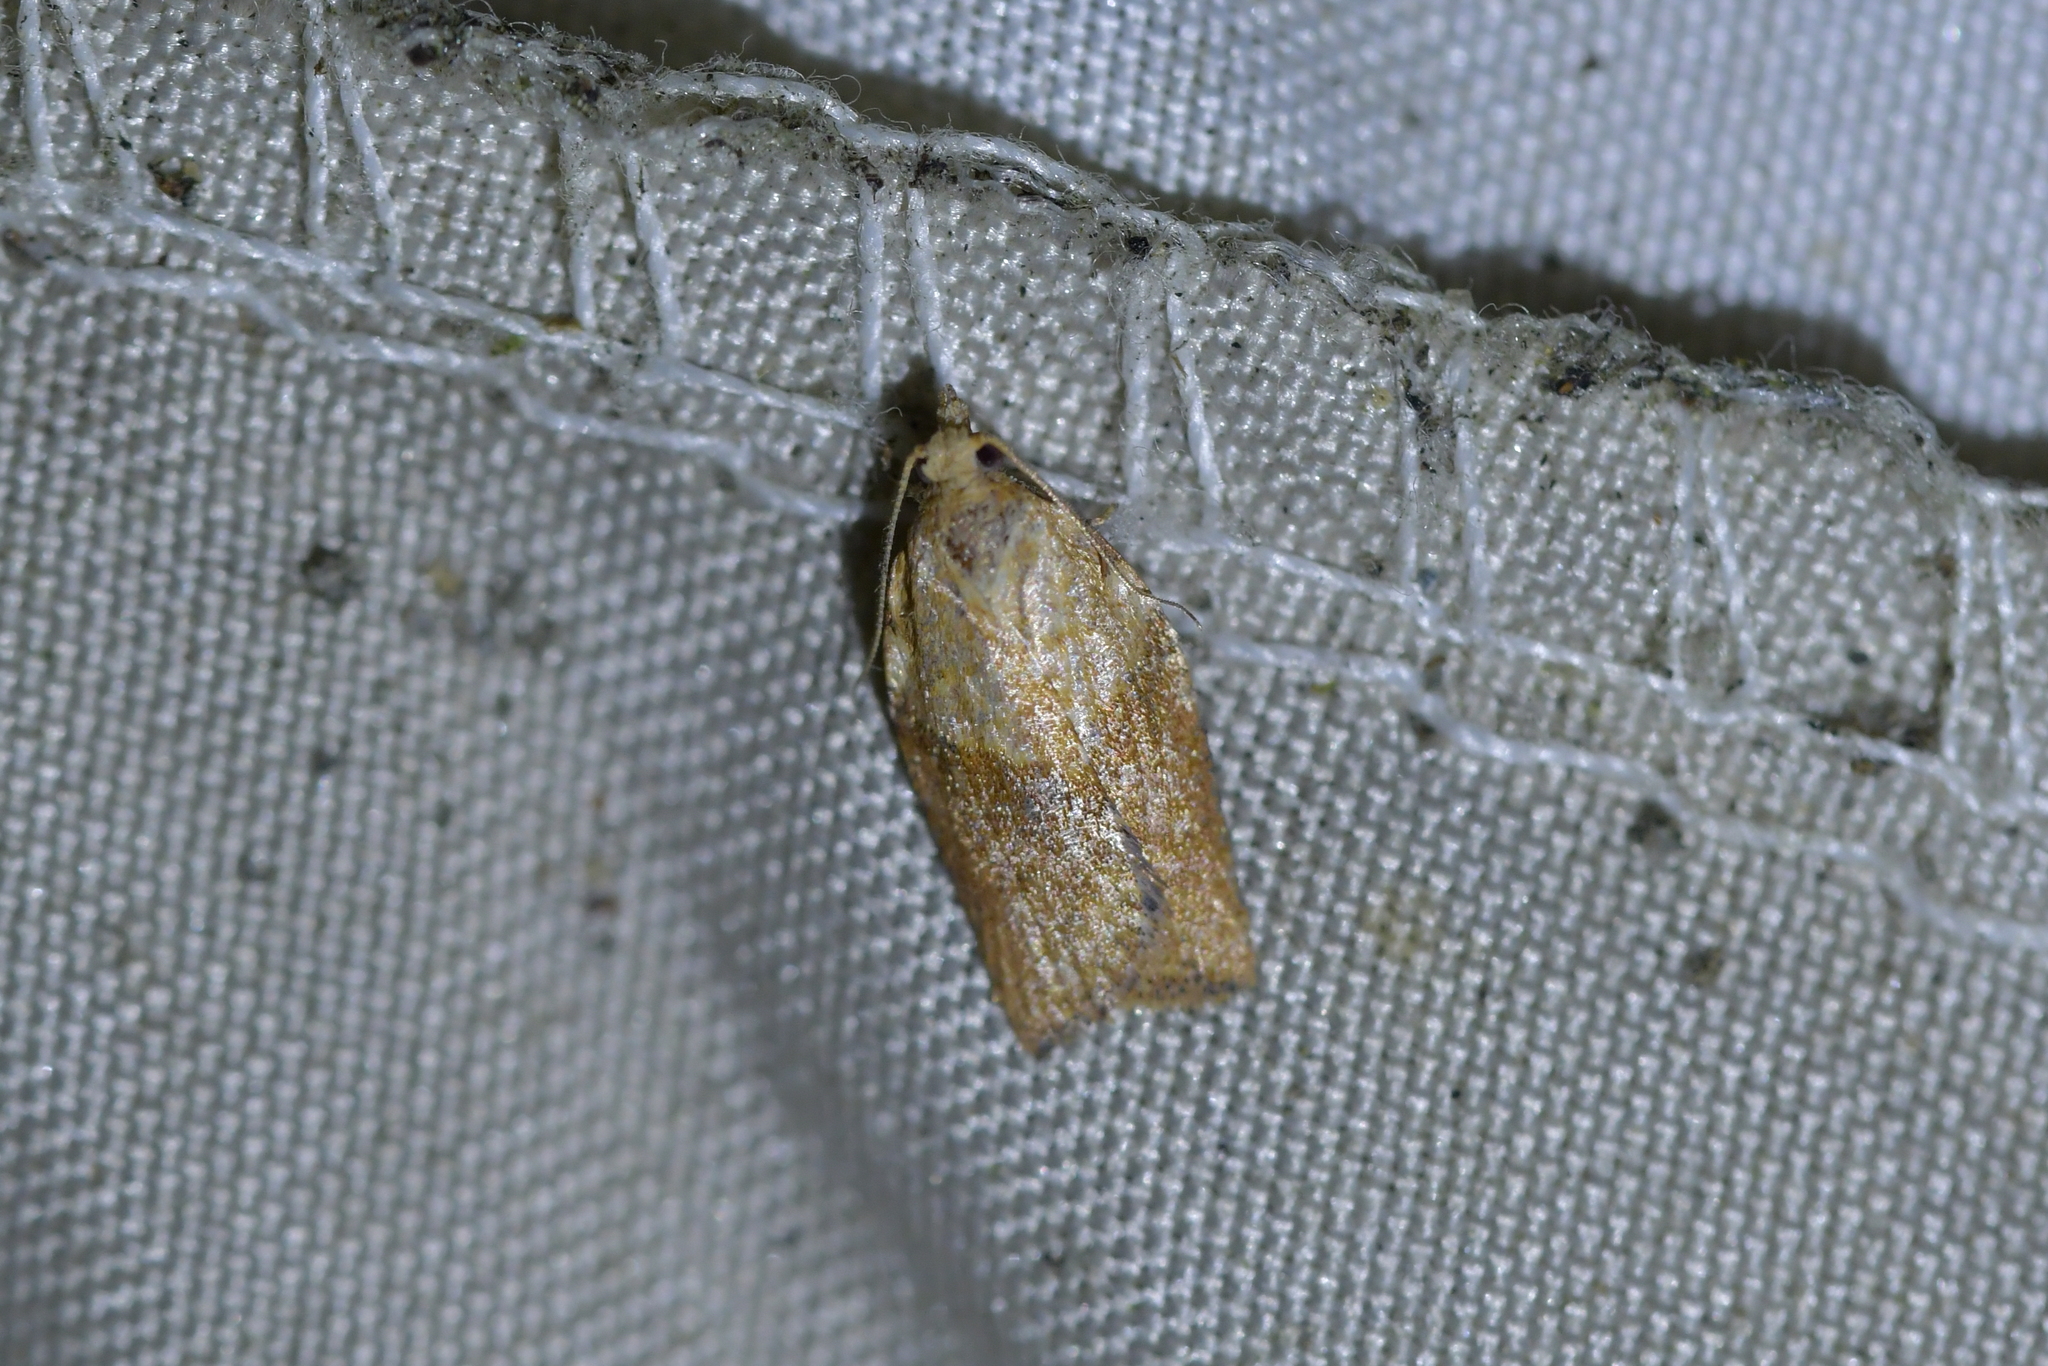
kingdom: Animalia
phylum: Arthropoda
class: Insecta
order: Lepidoptera
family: Tortricidae
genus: Epiphyas
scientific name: Epiphyas postvittana
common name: Light brown apple moth
